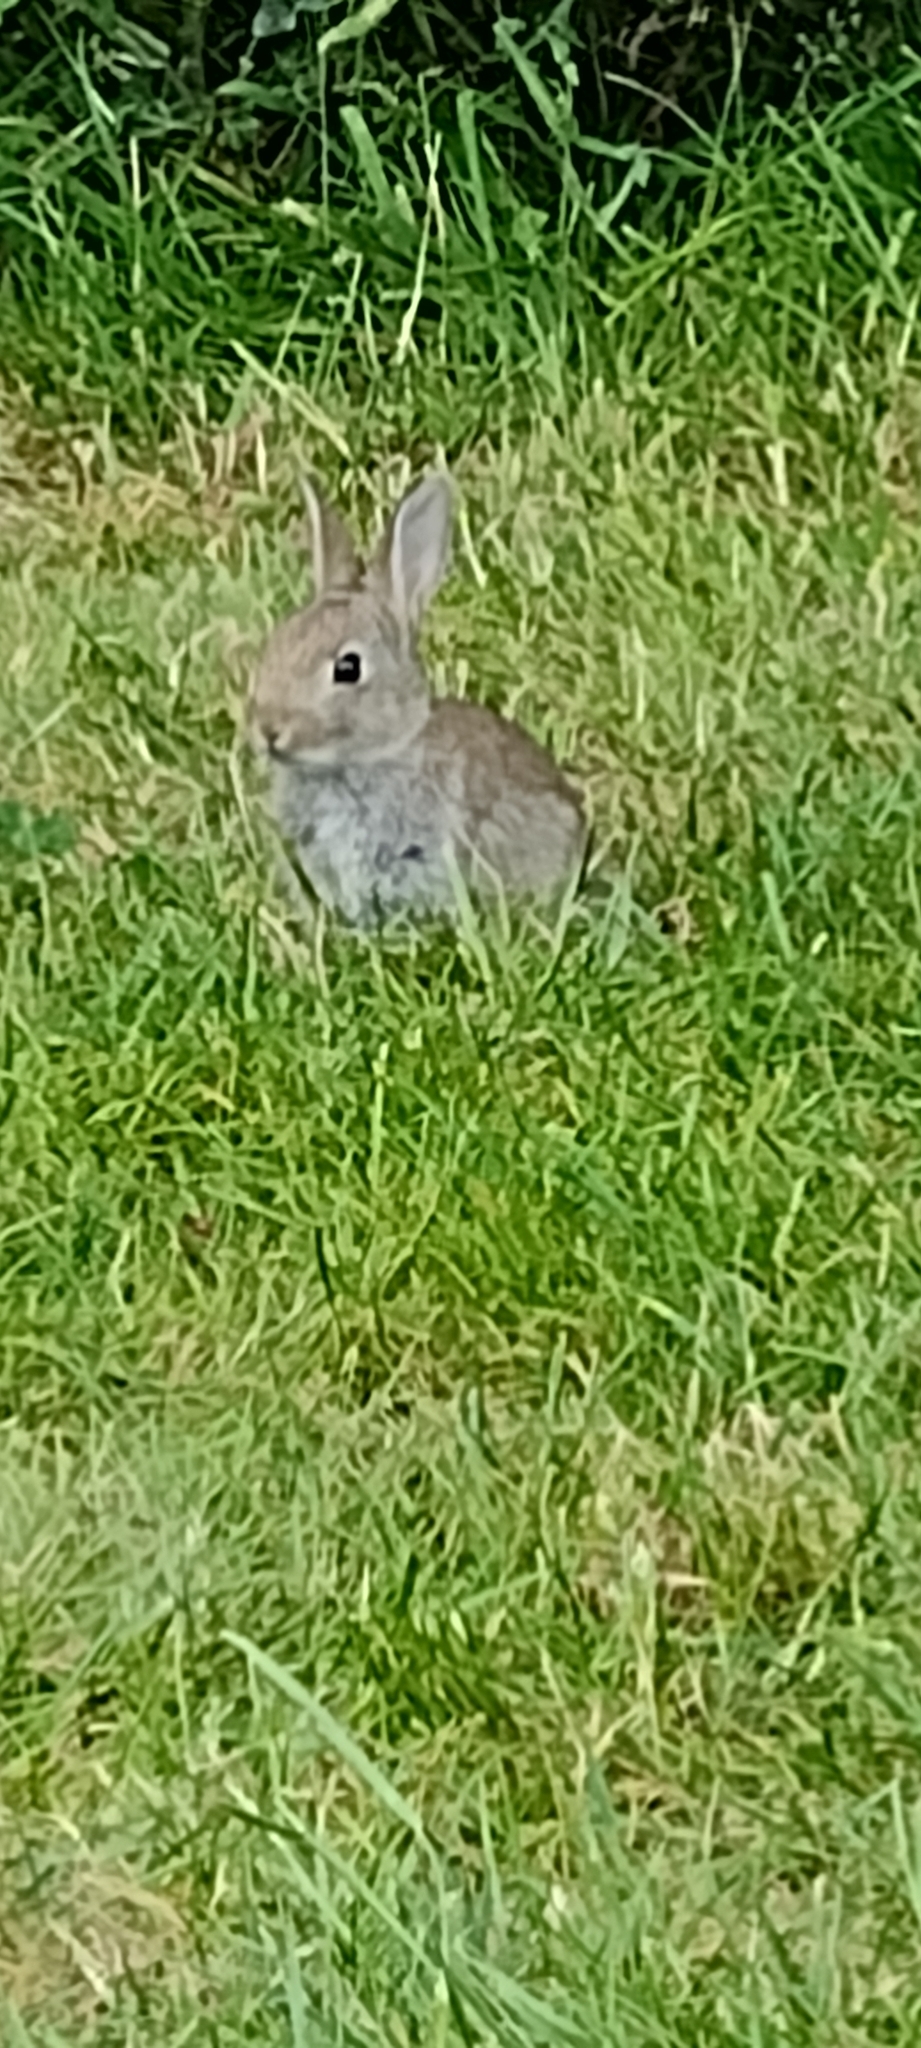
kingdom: Animalia
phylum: Chordata
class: Mammalia
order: Lagomorpha
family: Leporidae
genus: Oryctolagus
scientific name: Oryctolagus cuniculus
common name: European rabbit
